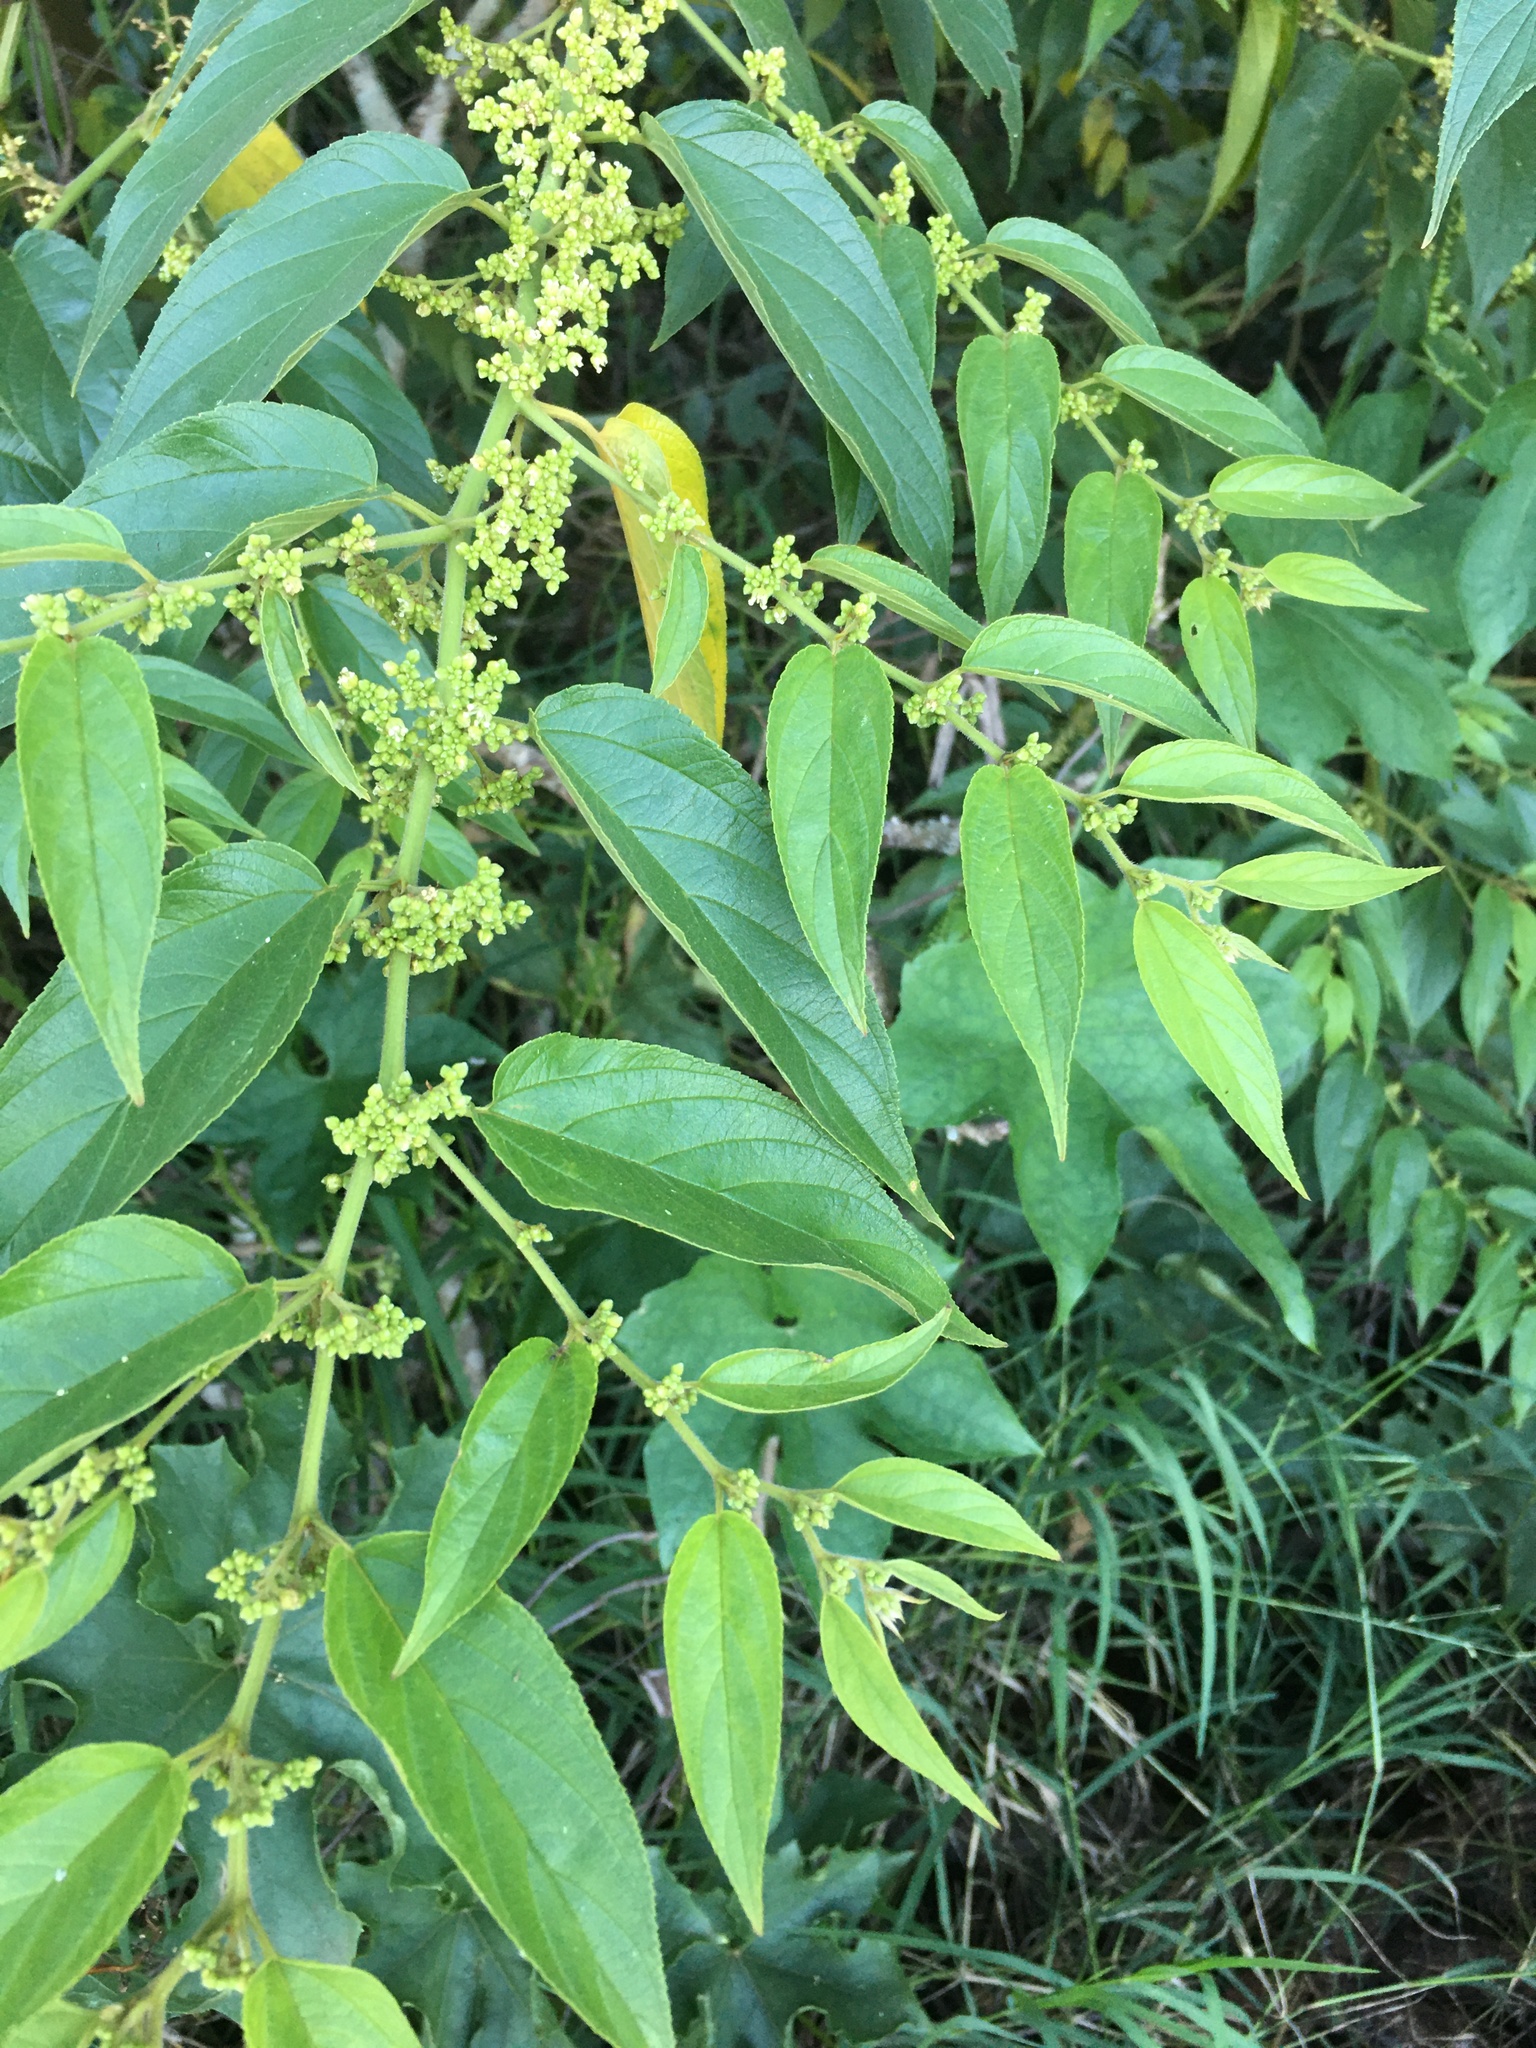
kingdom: Plantae
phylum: Tracheophyta
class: Magnoliopsida
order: Rosales
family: Cannabaceae
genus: Trema
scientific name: Trema micranthum
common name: Jamaican nettletree
